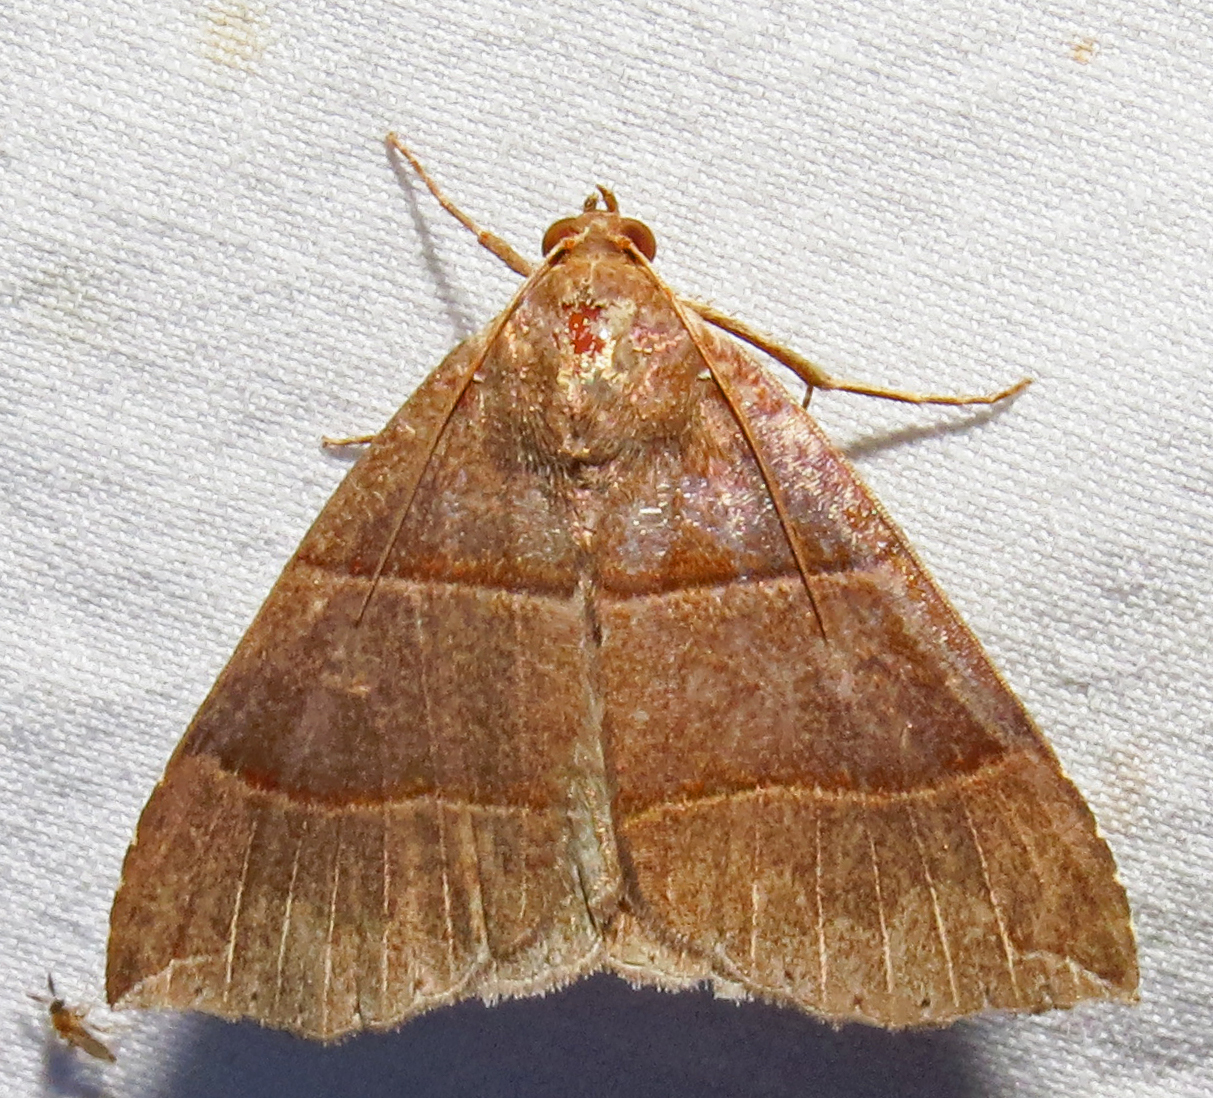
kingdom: Animalia
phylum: Arthropoda
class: Insecta
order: Lepidoptera
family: Erebidae
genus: Parallelia
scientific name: Parallelia bistriaris
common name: Maple looper moth
